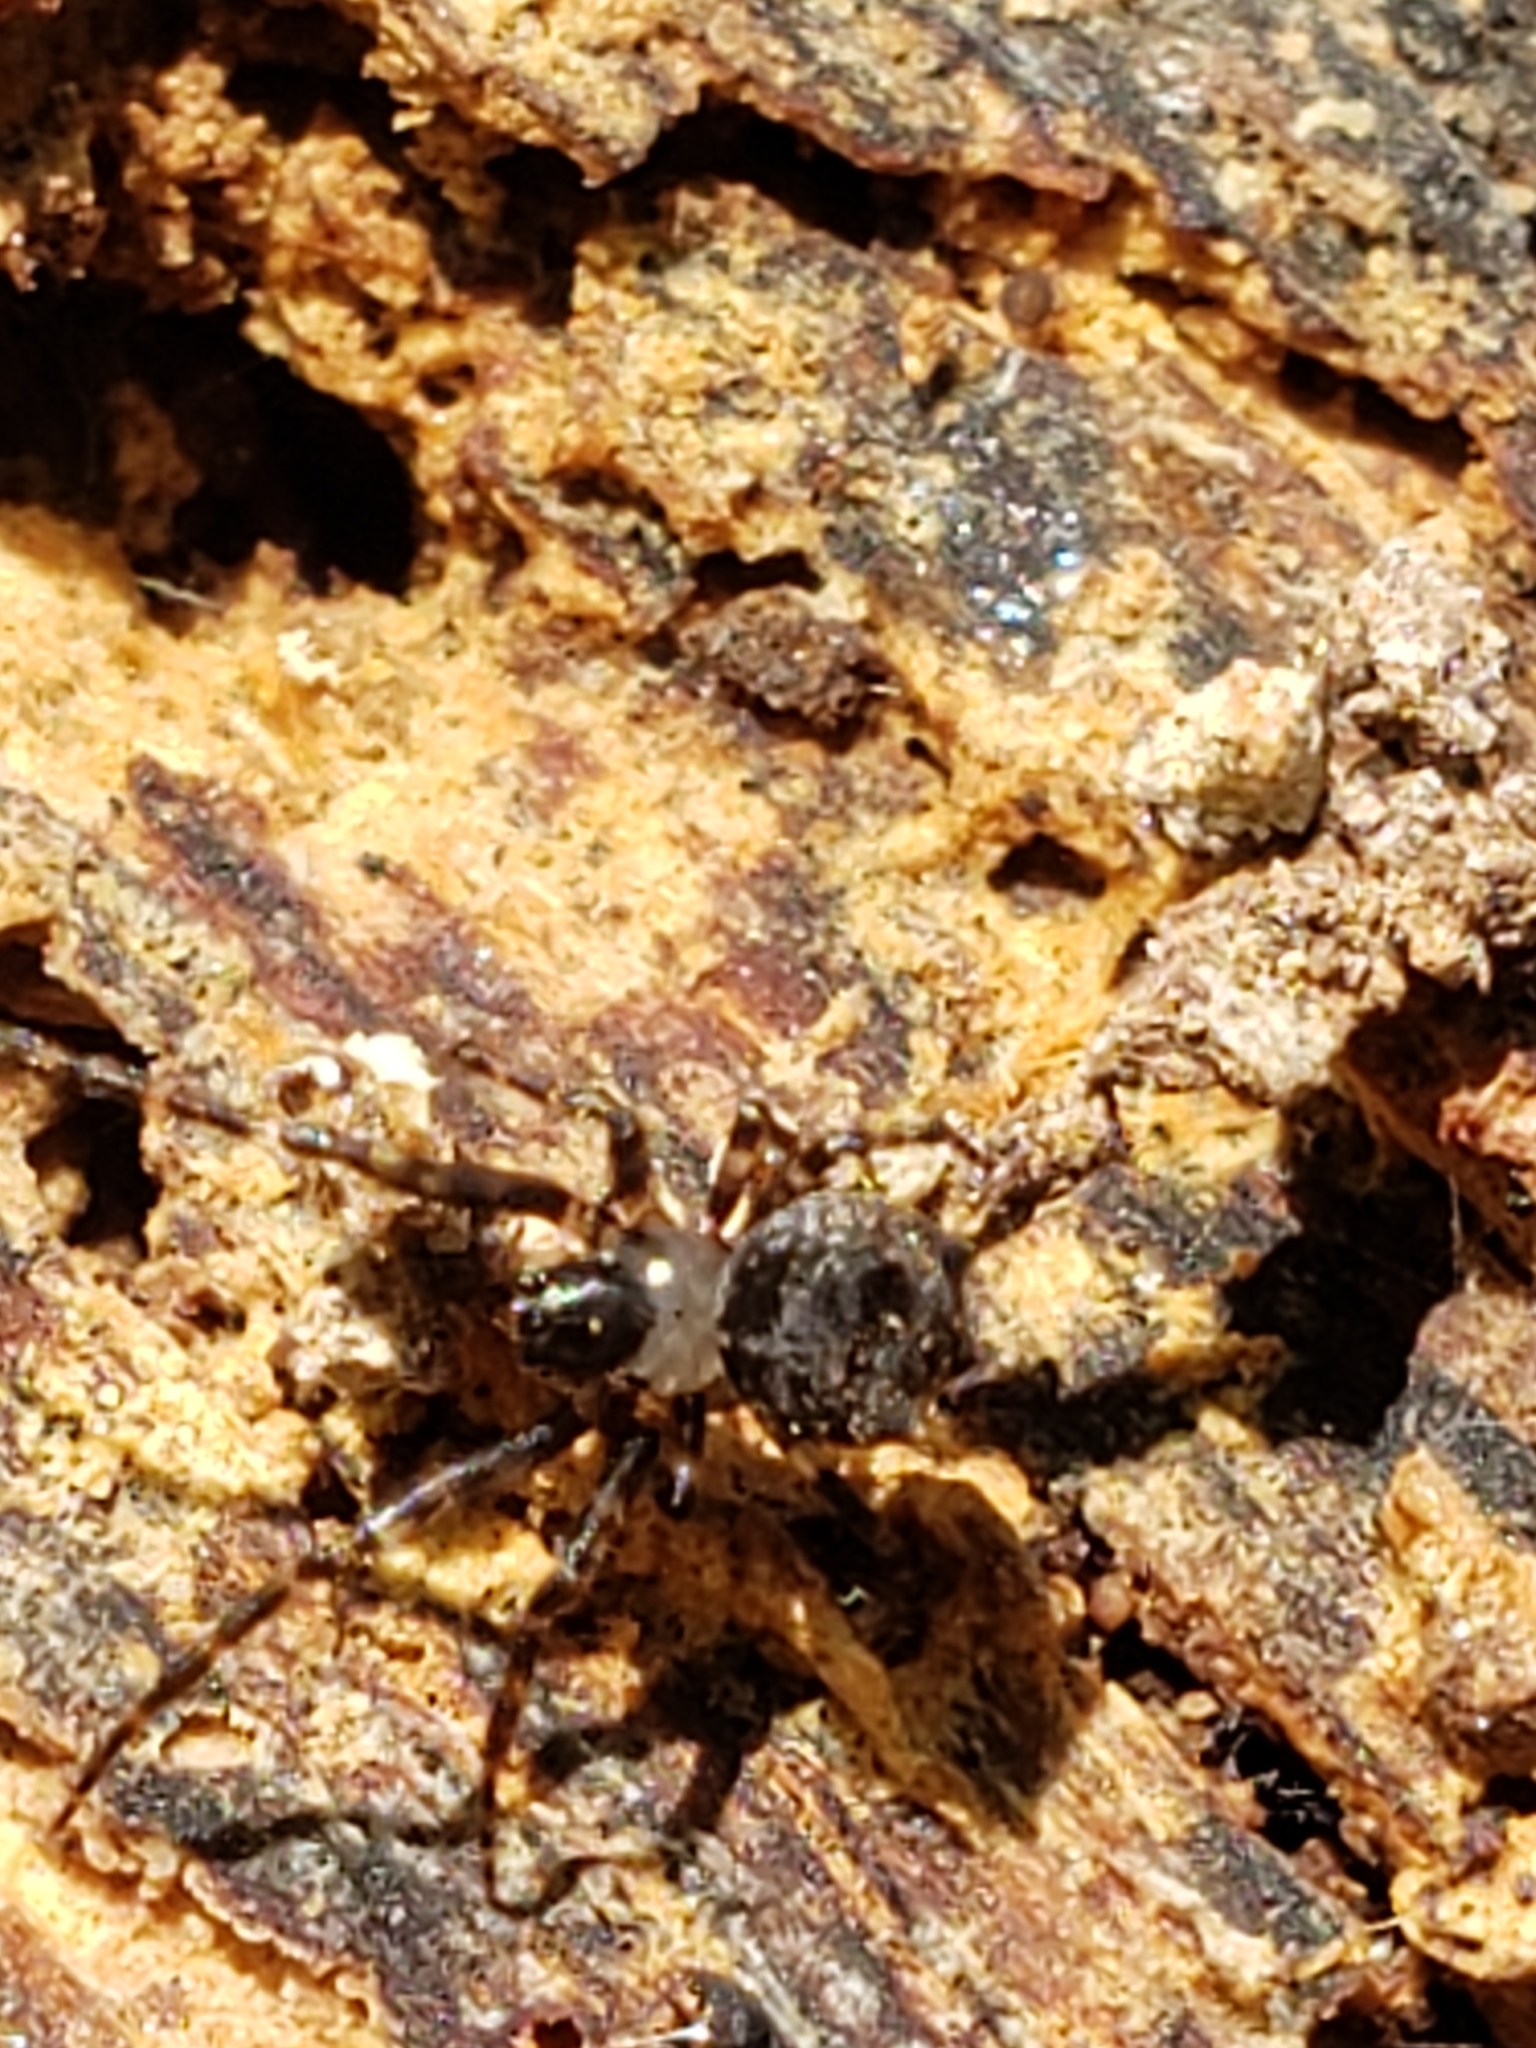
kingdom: Animalia
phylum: Arthropoda
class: Arachnida
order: Araneae
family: Tetragnathidae
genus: Dolichognatha
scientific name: Dolichognatha pentagona
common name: Longjawed orb weavers
